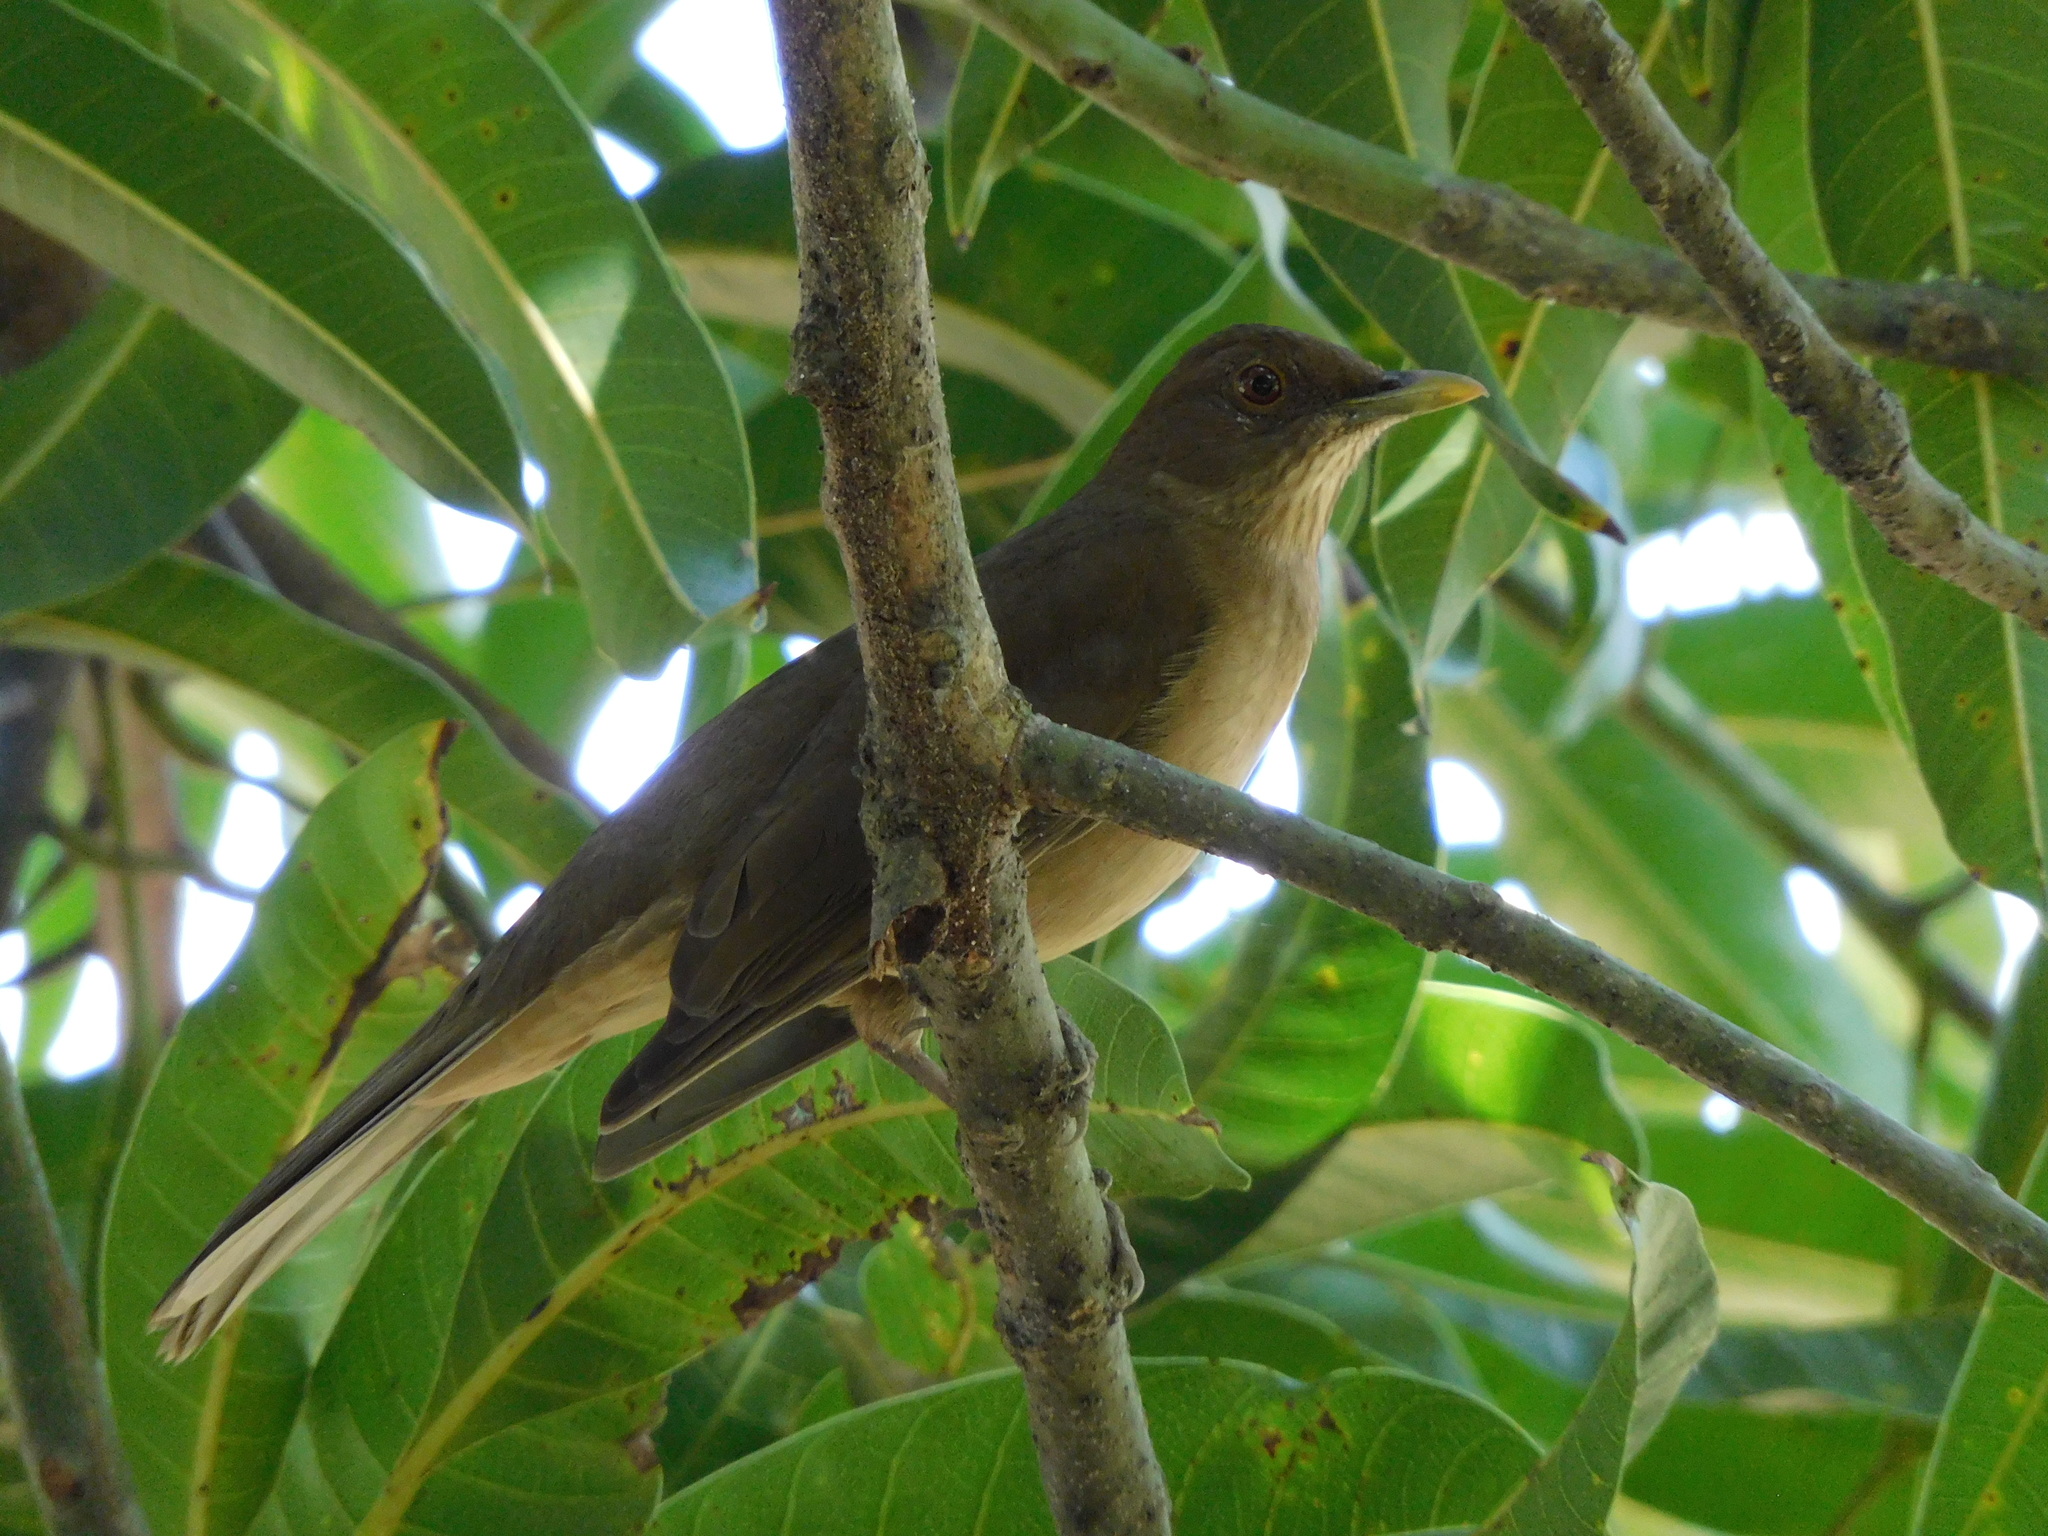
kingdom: Animalia
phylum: Chordata
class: Aves
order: Passeriformes
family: Turdidae
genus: Turdus
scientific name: Turdus grayi
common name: Clay-colored thrush
